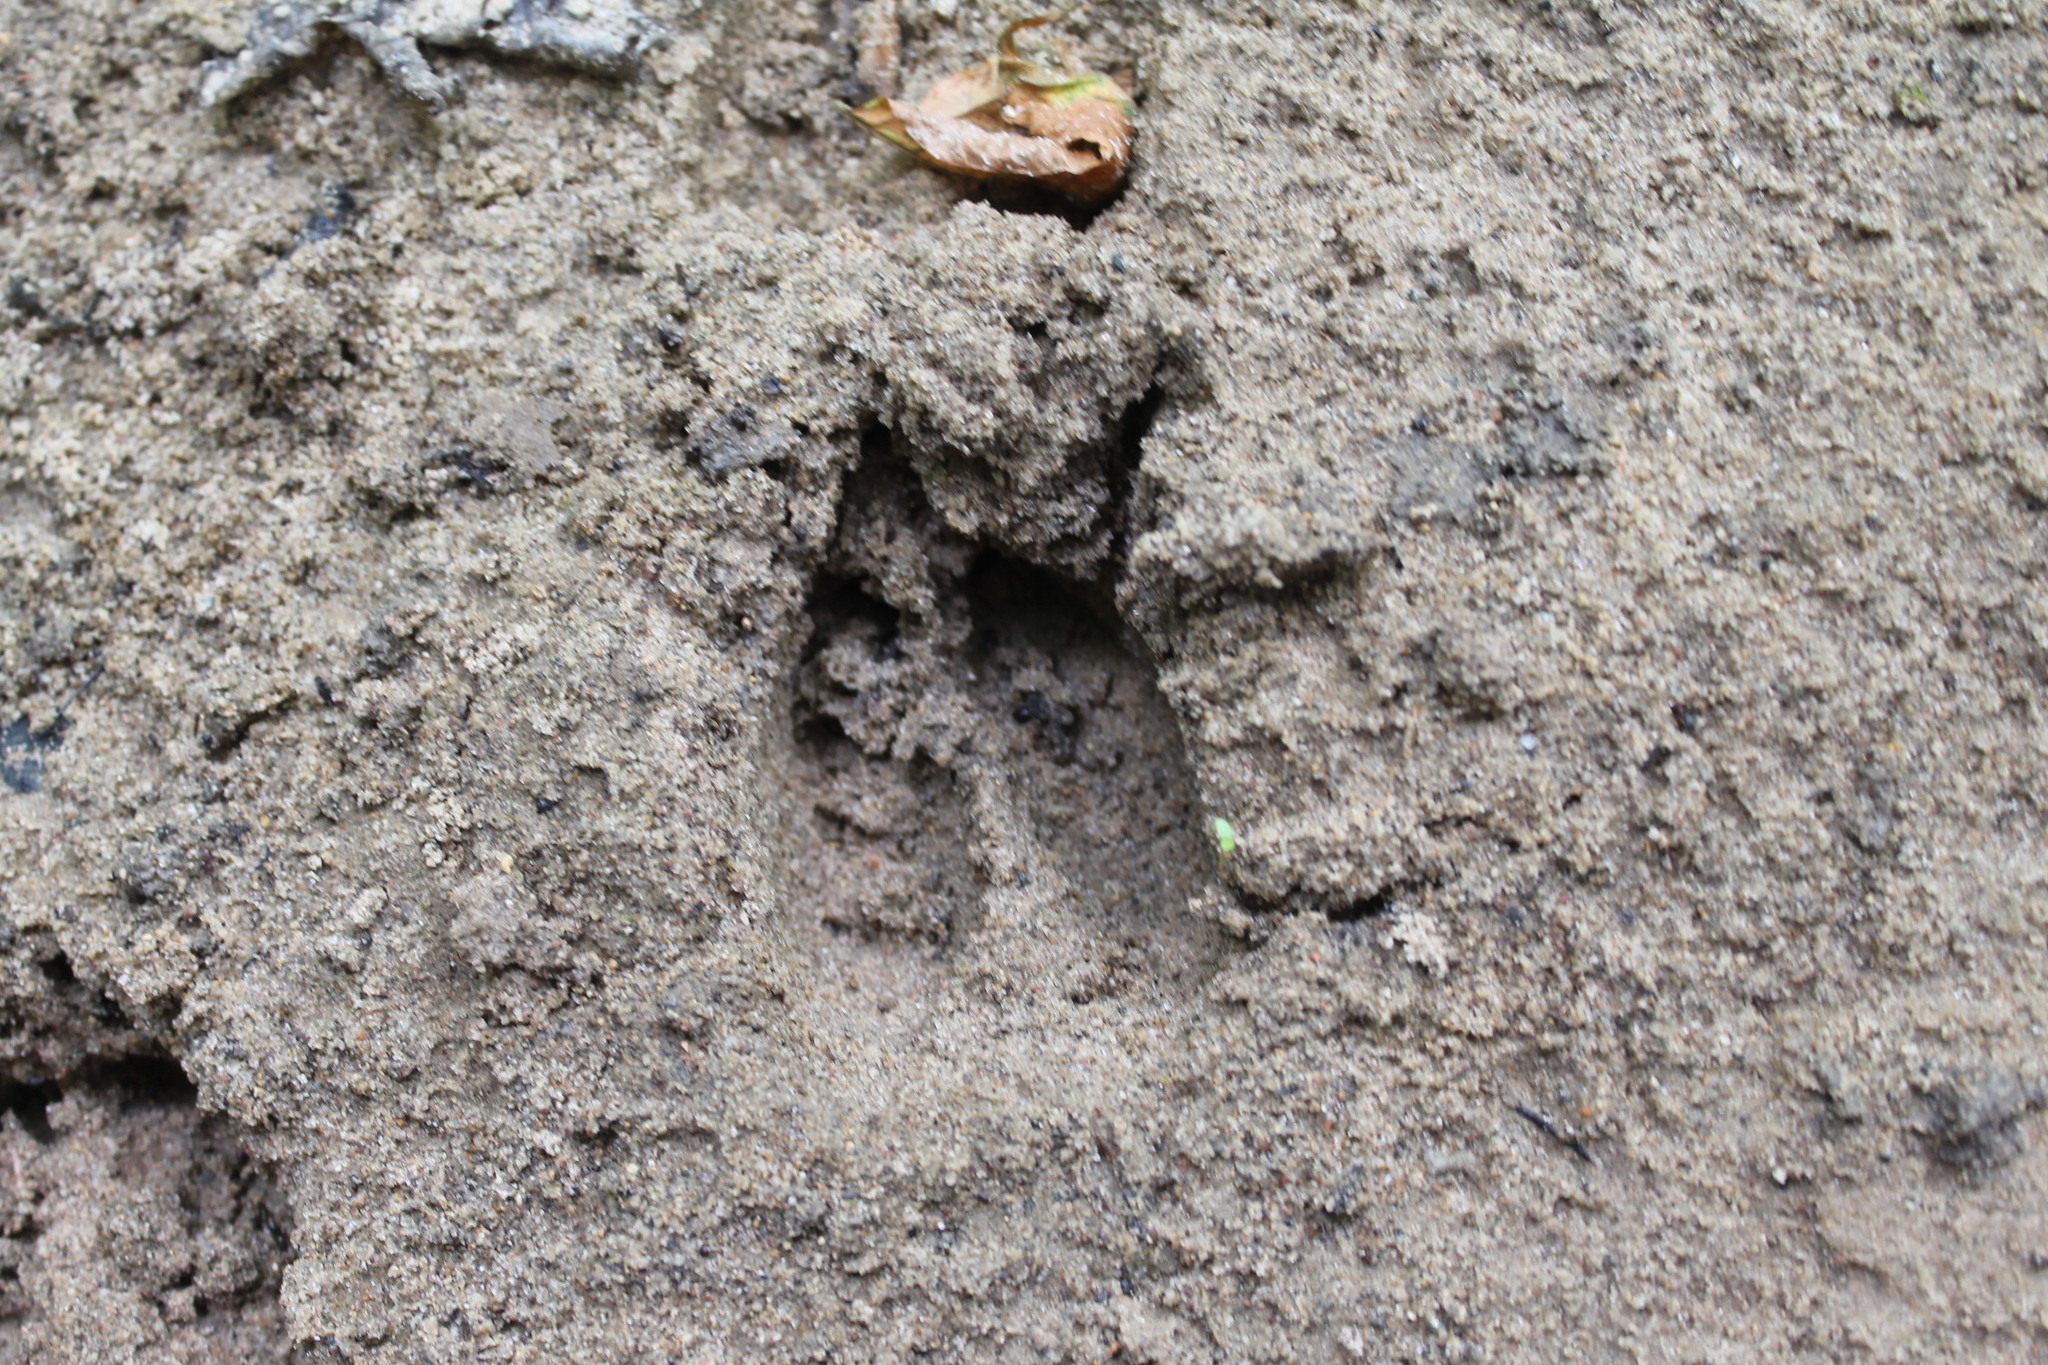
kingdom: Animalia
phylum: Chordata
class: Mammalia
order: Artiodactyla
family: Cervidae
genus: Odocoileus
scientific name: Odocoileus virginianus
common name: White-tailed deer
